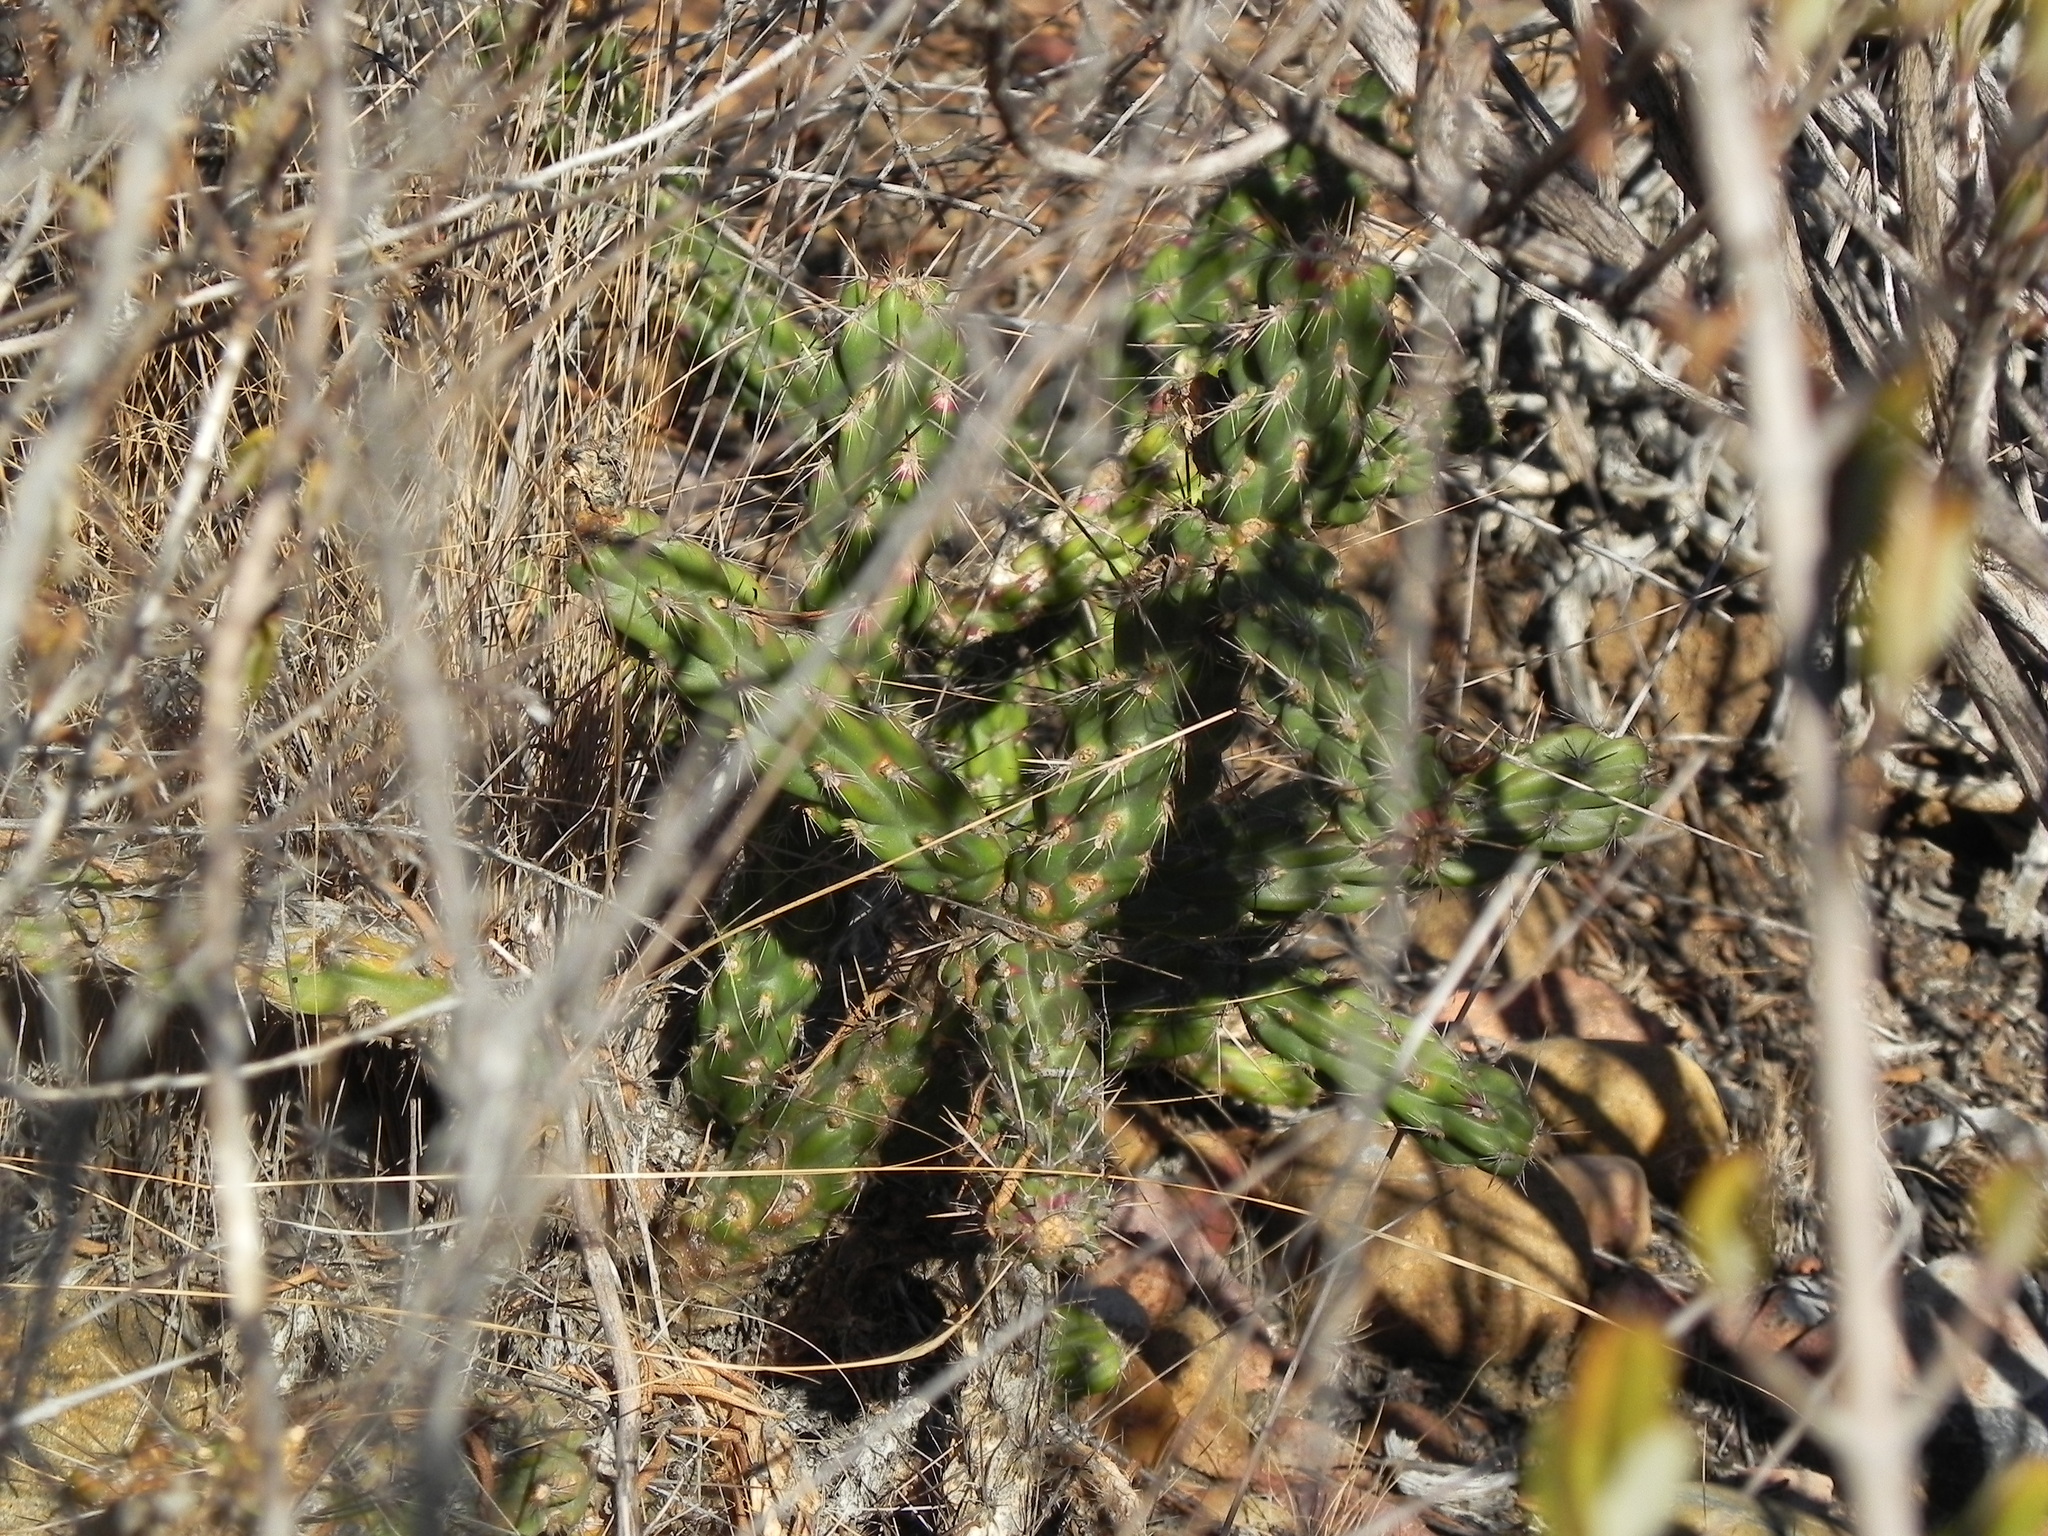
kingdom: Plantae
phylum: Tracheophyta
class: Magnoliopsida
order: Caryophyllales
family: Cactaceae
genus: Cylindropuntia
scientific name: Cylindropuntia californica
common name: Snake cholla
